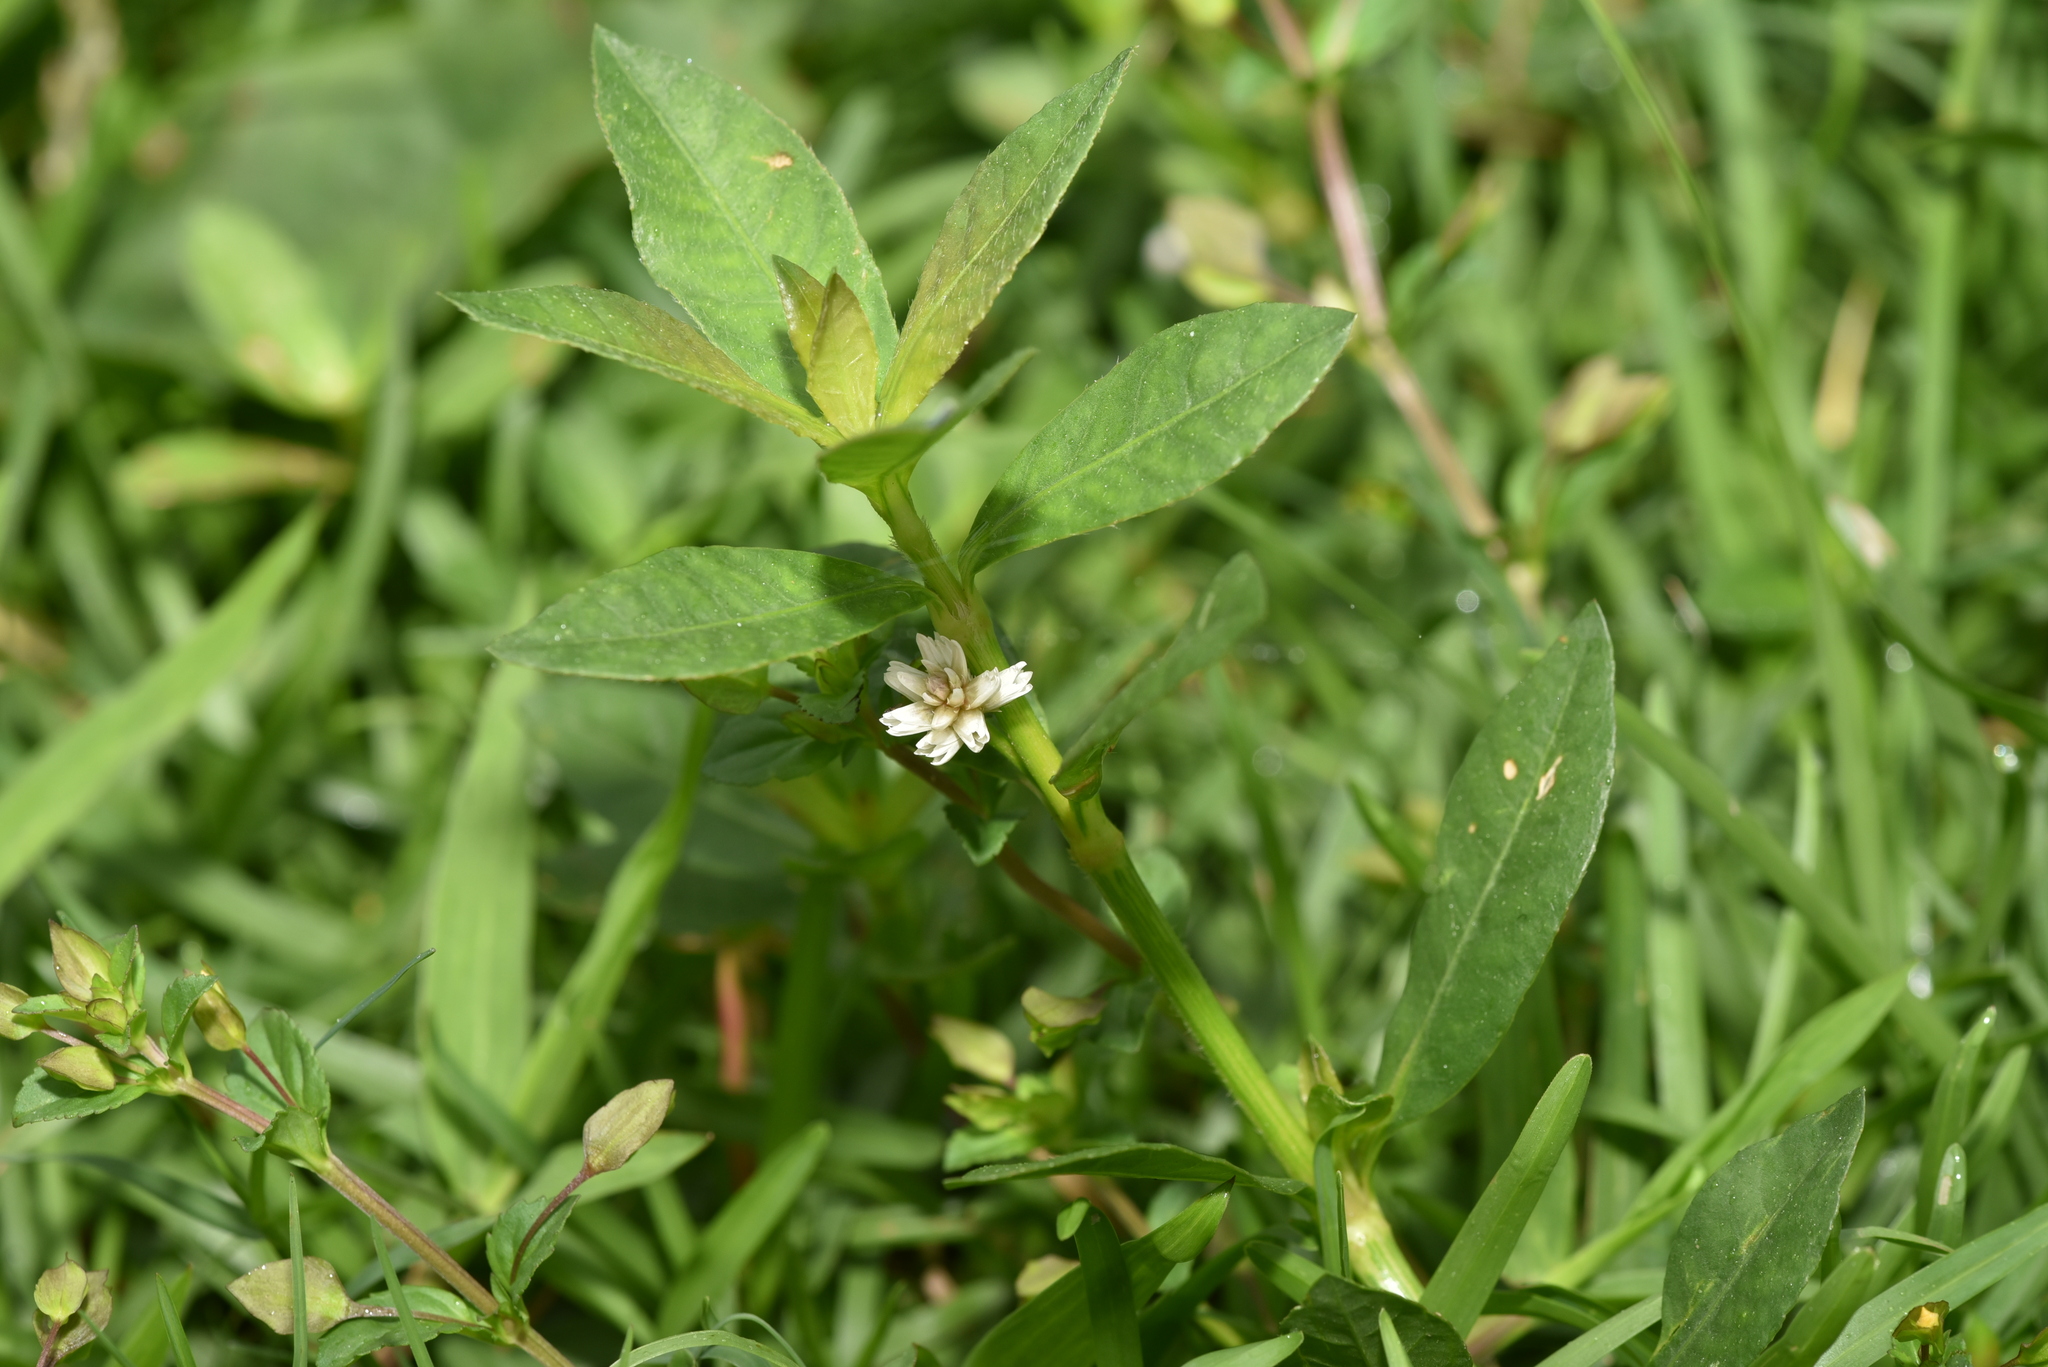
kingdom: Plantae
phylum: Tracheophyta
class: Magnoliopsida
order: Caryophyllales
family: Amaranthaceae
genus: Alternanthera
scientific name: Alternanthera philoxeroides
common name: Alligatorweed
